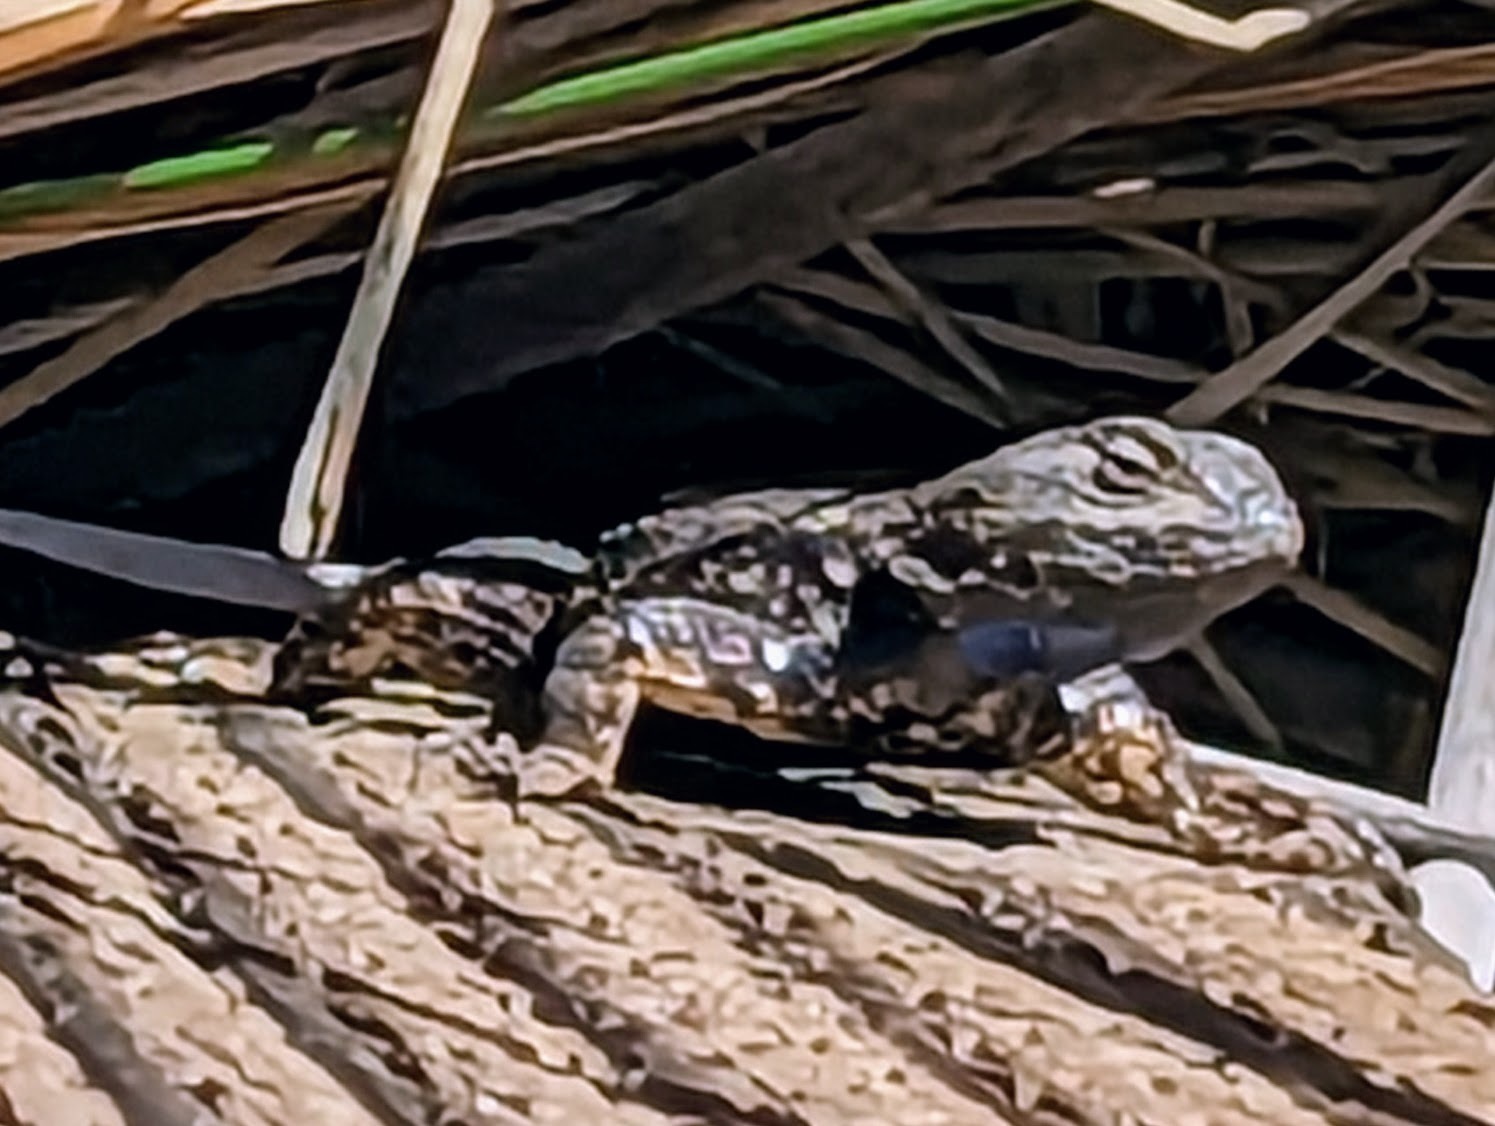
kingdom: Animalia
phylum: Chordata
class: Squamata
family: Phrynosomatidae
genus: Sceloporus
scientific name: Sceloporus occidentalis
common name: Western fence lizard
